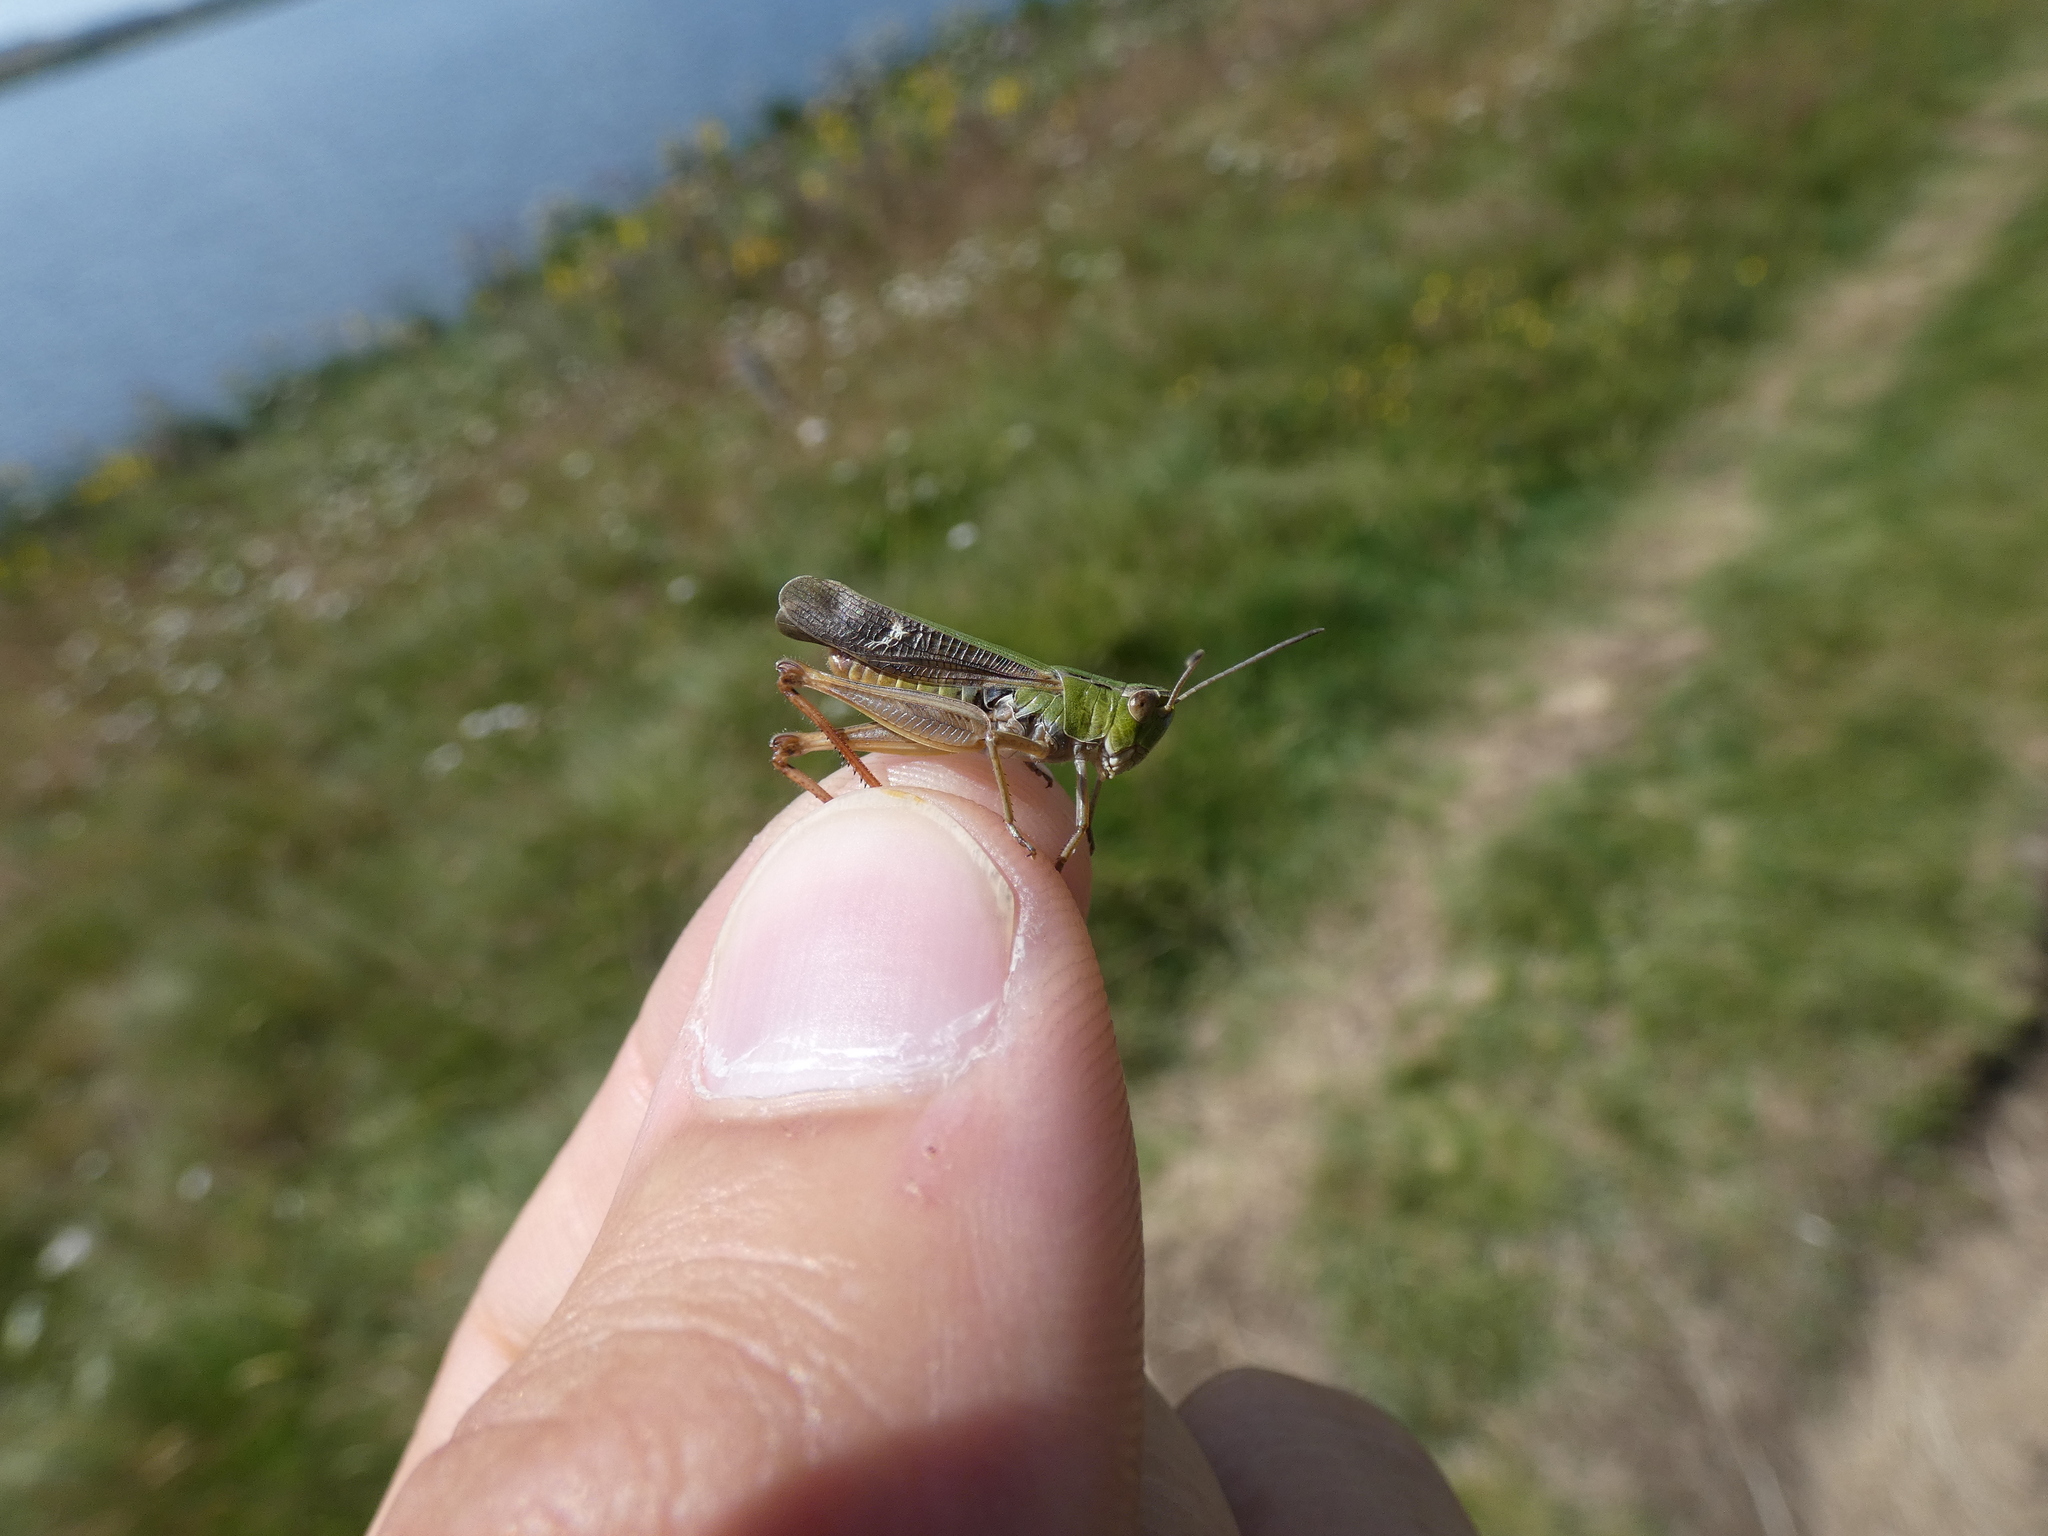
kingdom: Animalia
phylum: Arthropoda
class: Insecta
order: Orthoptera
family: Acrididae
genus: Stenobothrus
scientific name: Stenobothrus lineatus
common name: Stripe-winged grasshopper
